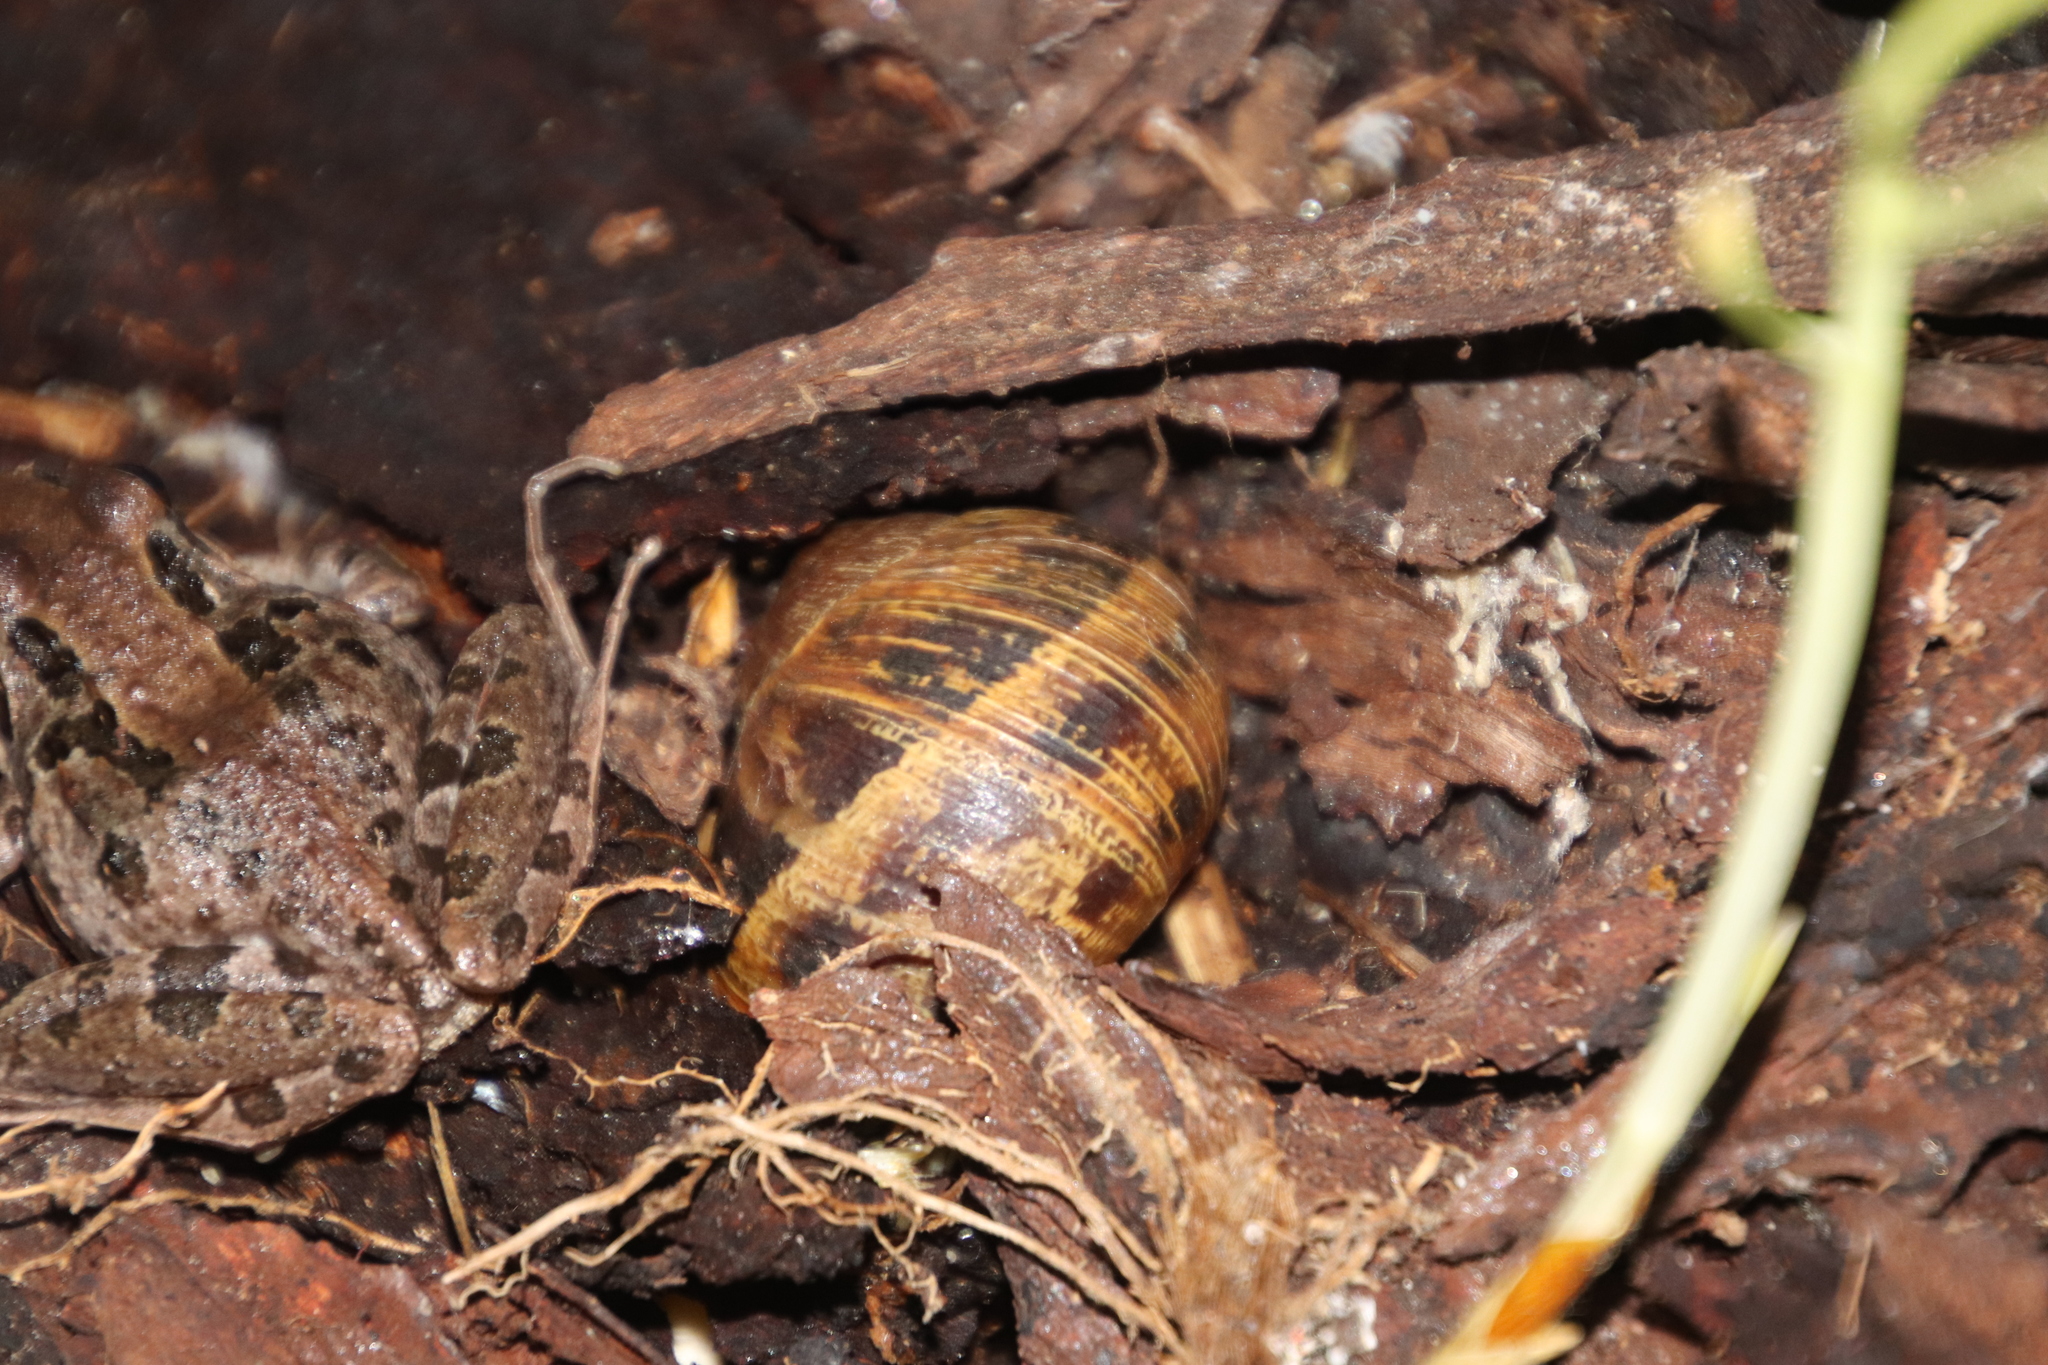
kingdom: Animalia
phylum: Mollusca
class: Gastropoda
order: Stylommatophora
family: Helicidae
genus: Cornu
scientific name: Cornu aspersum
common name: Brown garden snail
